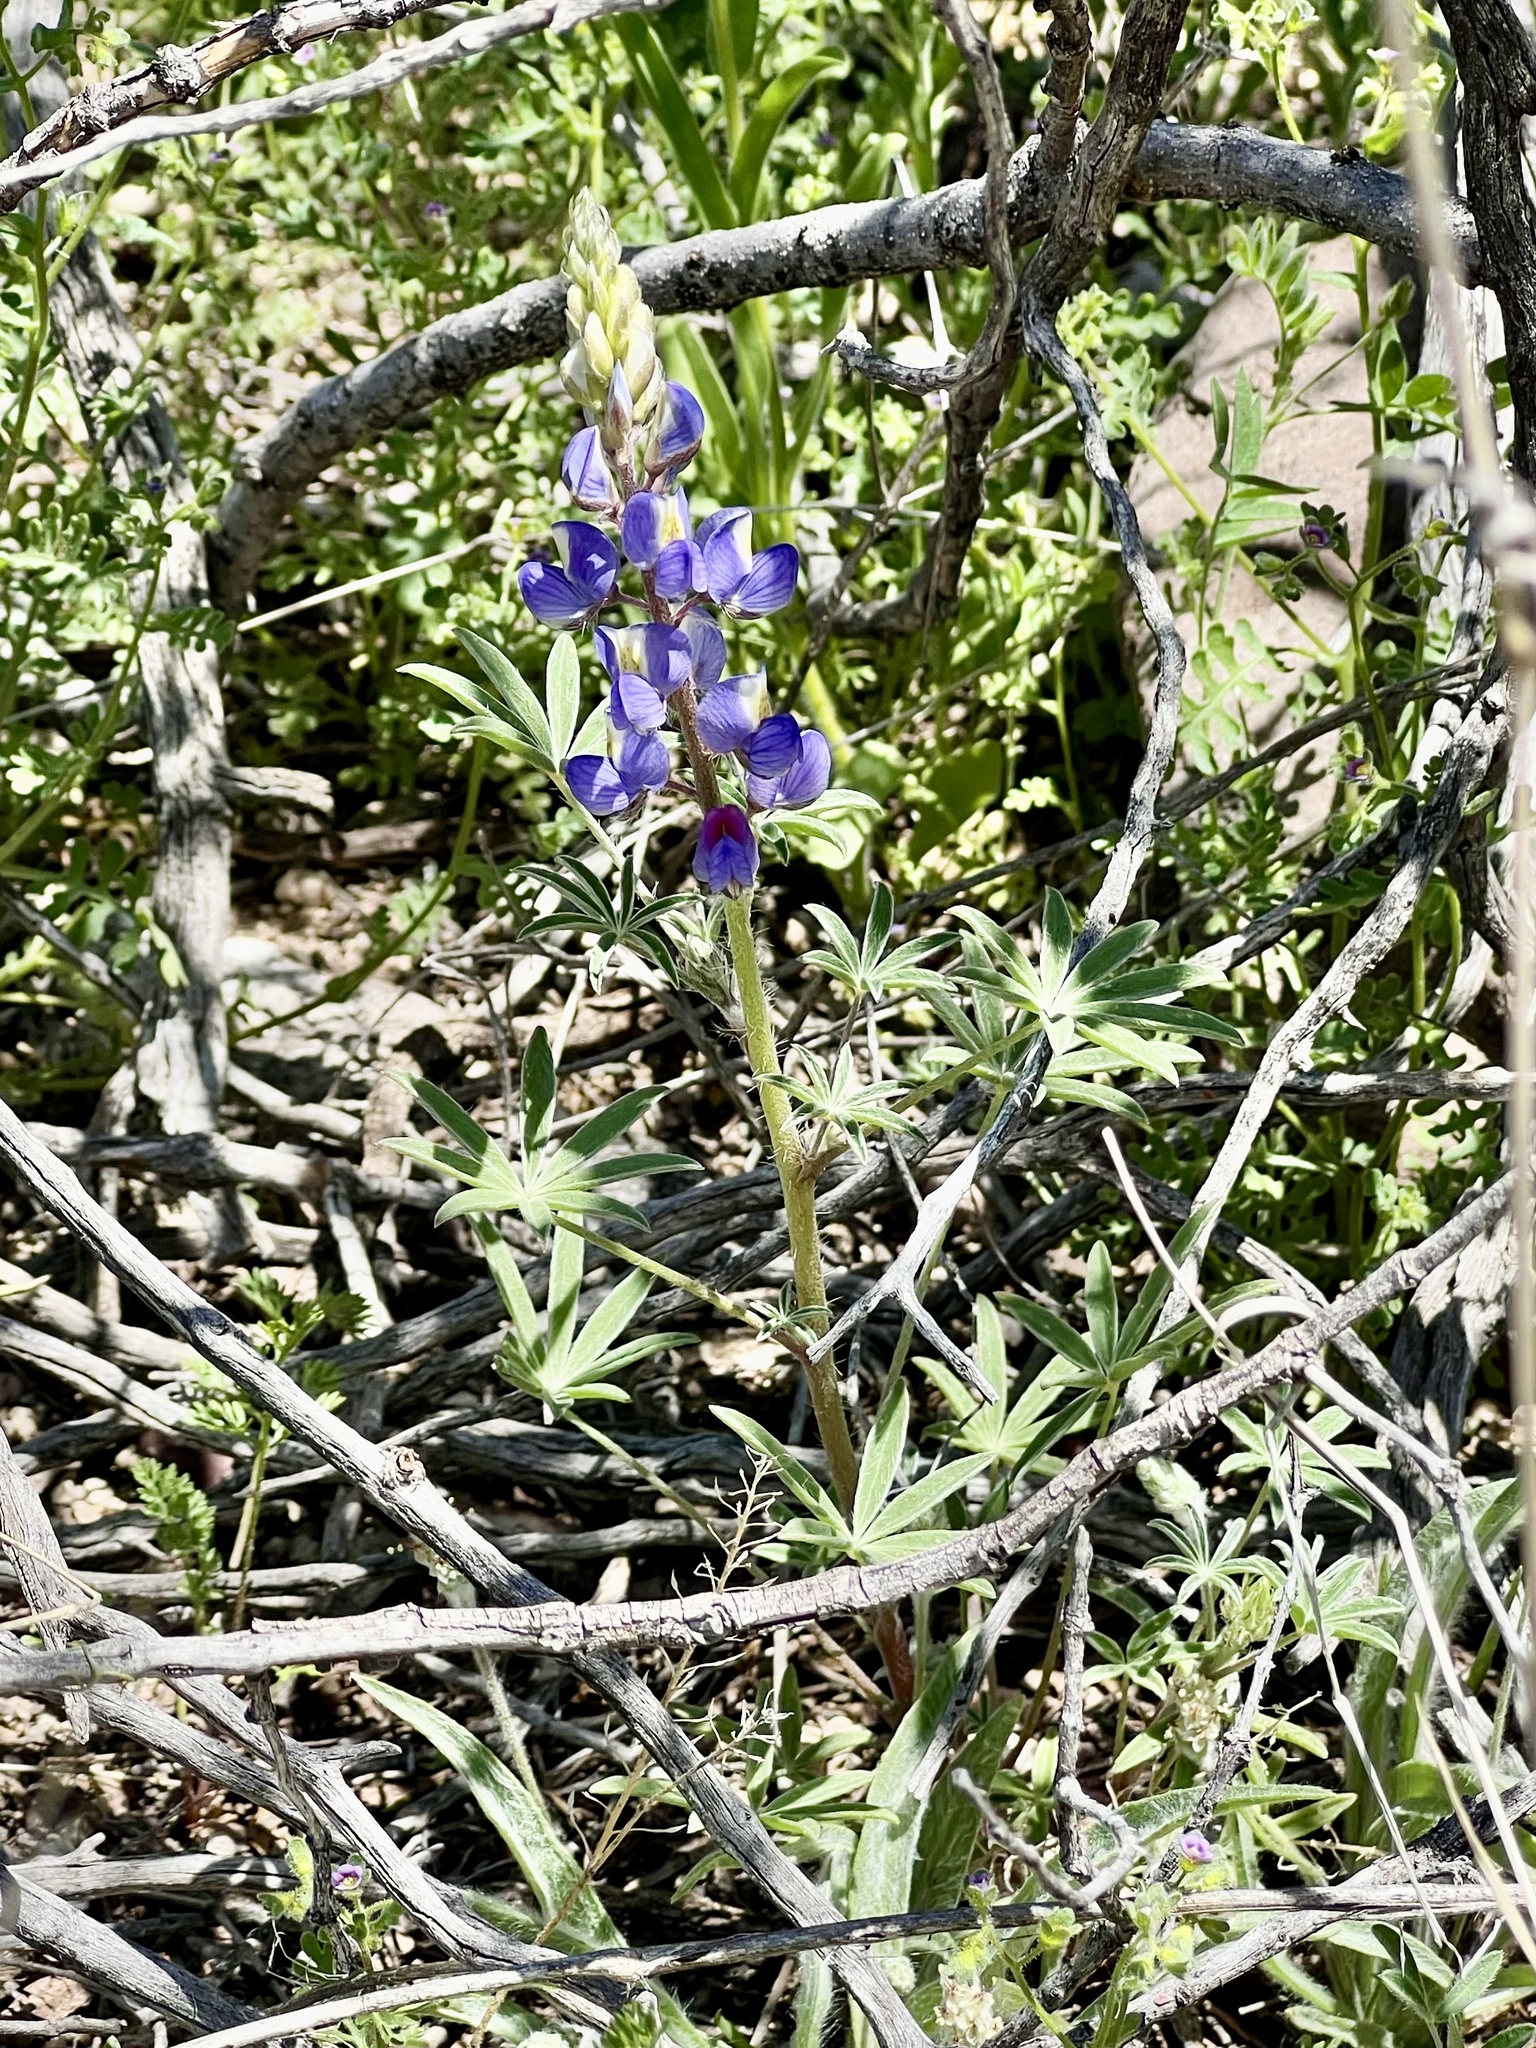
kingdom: Plantae
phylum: Tracheophyta
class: Magnoliopsida
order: Fabales
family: Fabaceae
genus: Lupinus
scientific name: Lupinus sparsiflorus
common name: Coulter's lupine
